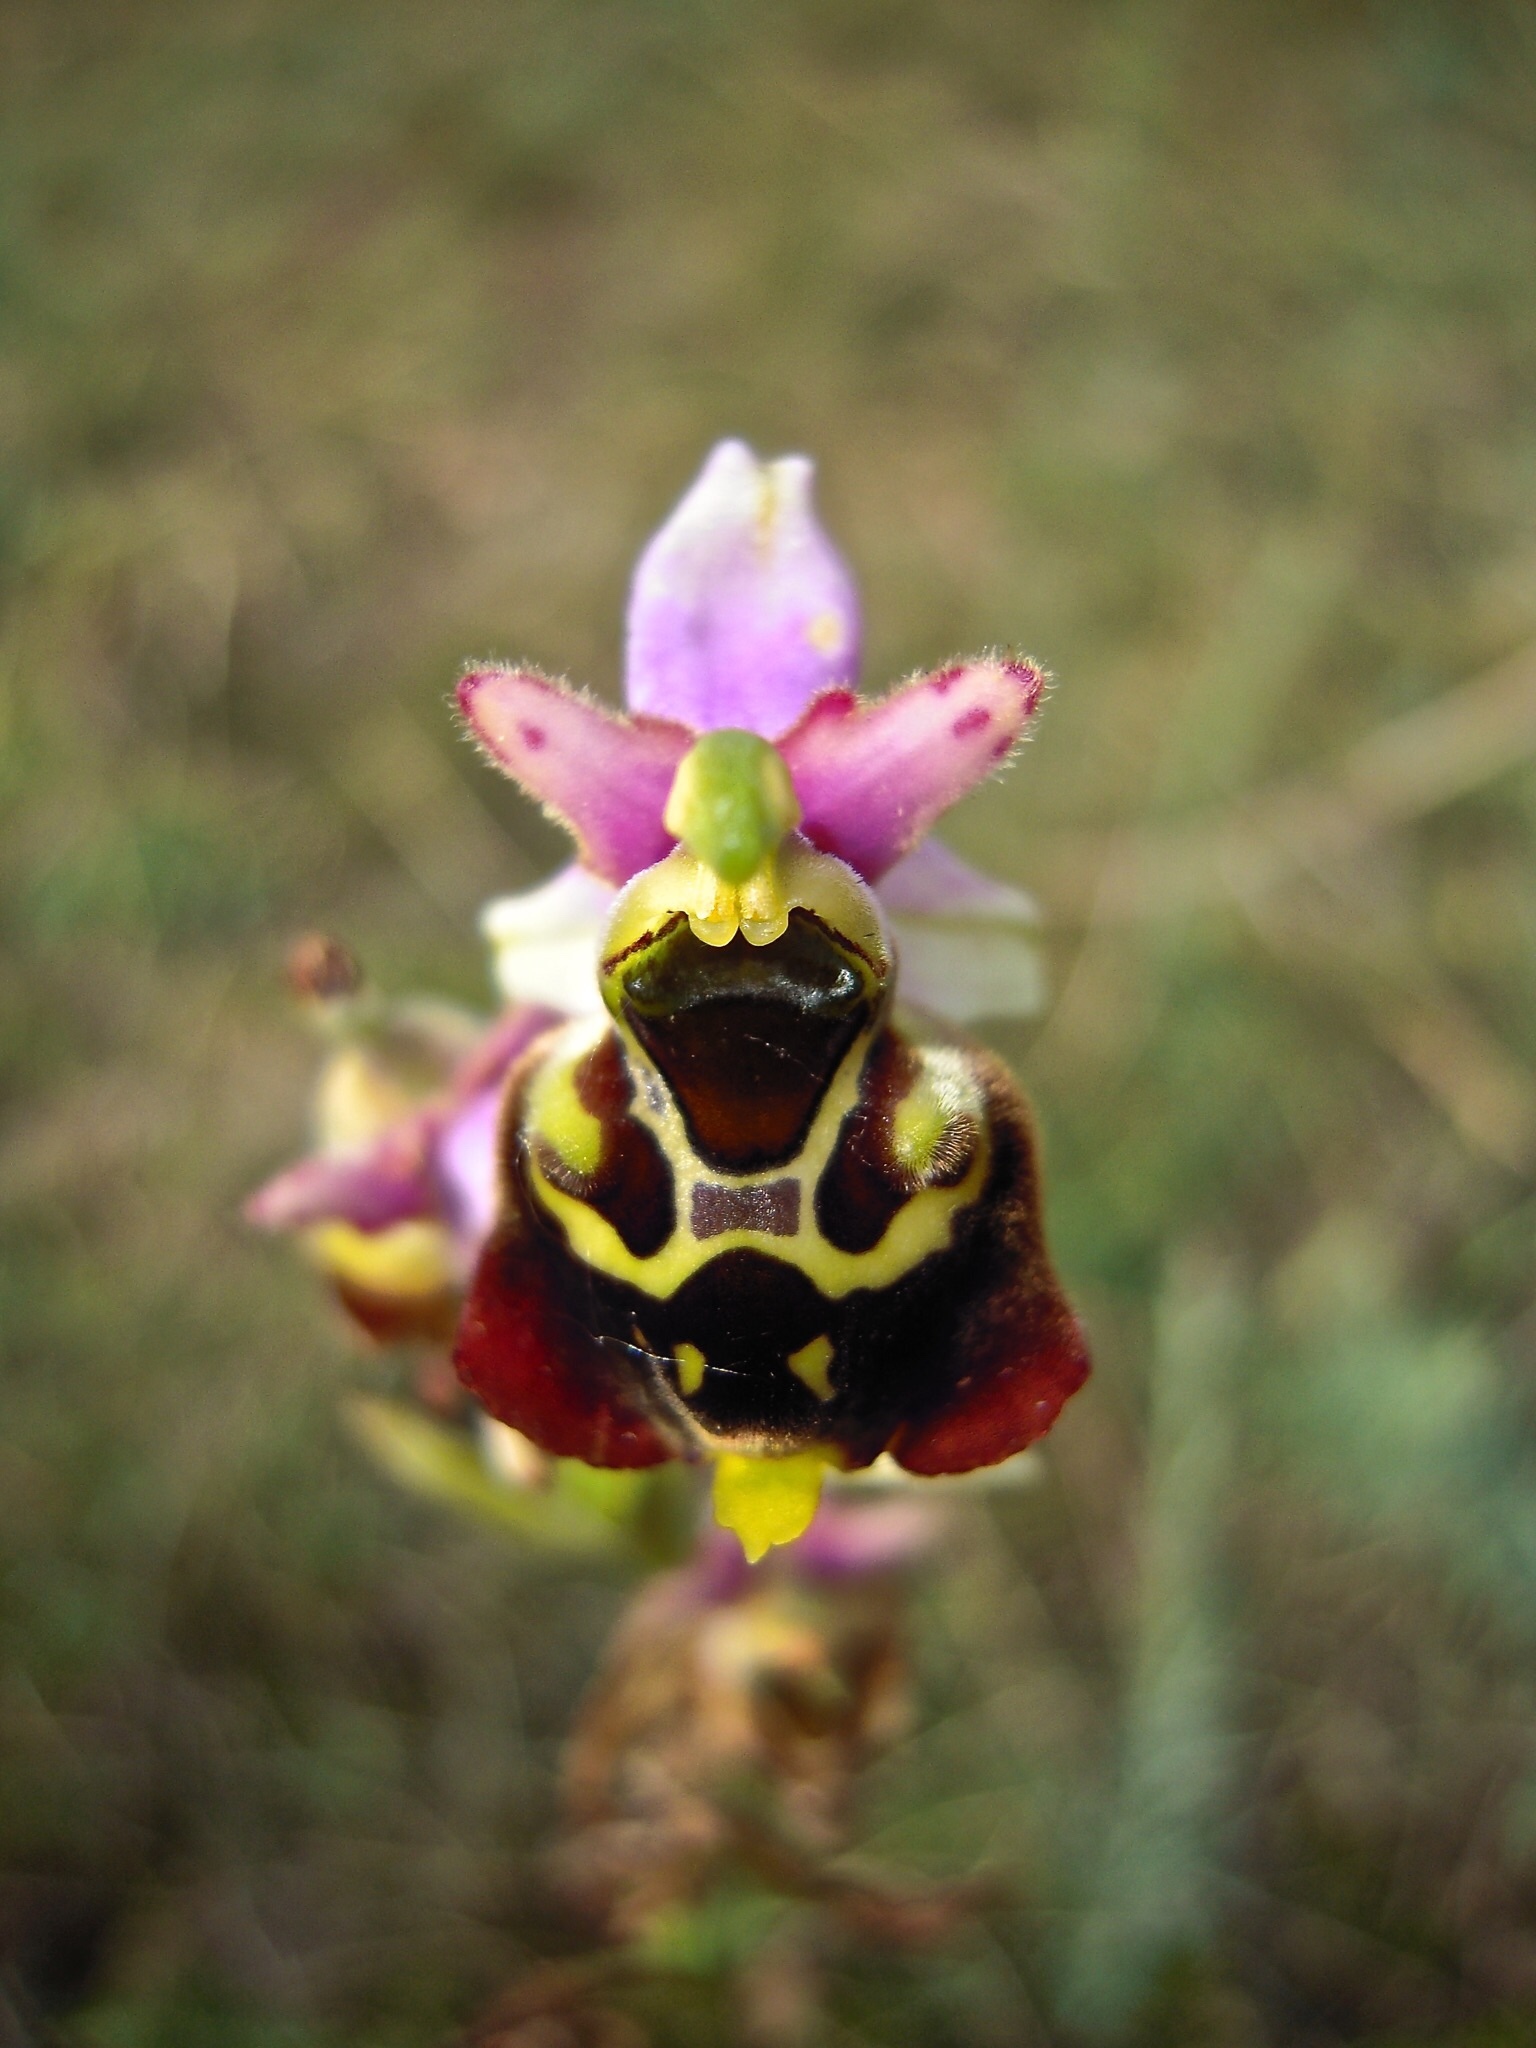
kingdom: Plantae
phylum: Tracheophyta
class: Liliopsida
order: Asparagales
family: Orchidaceae
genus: Ophrys
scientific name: Ophrys holosericea
